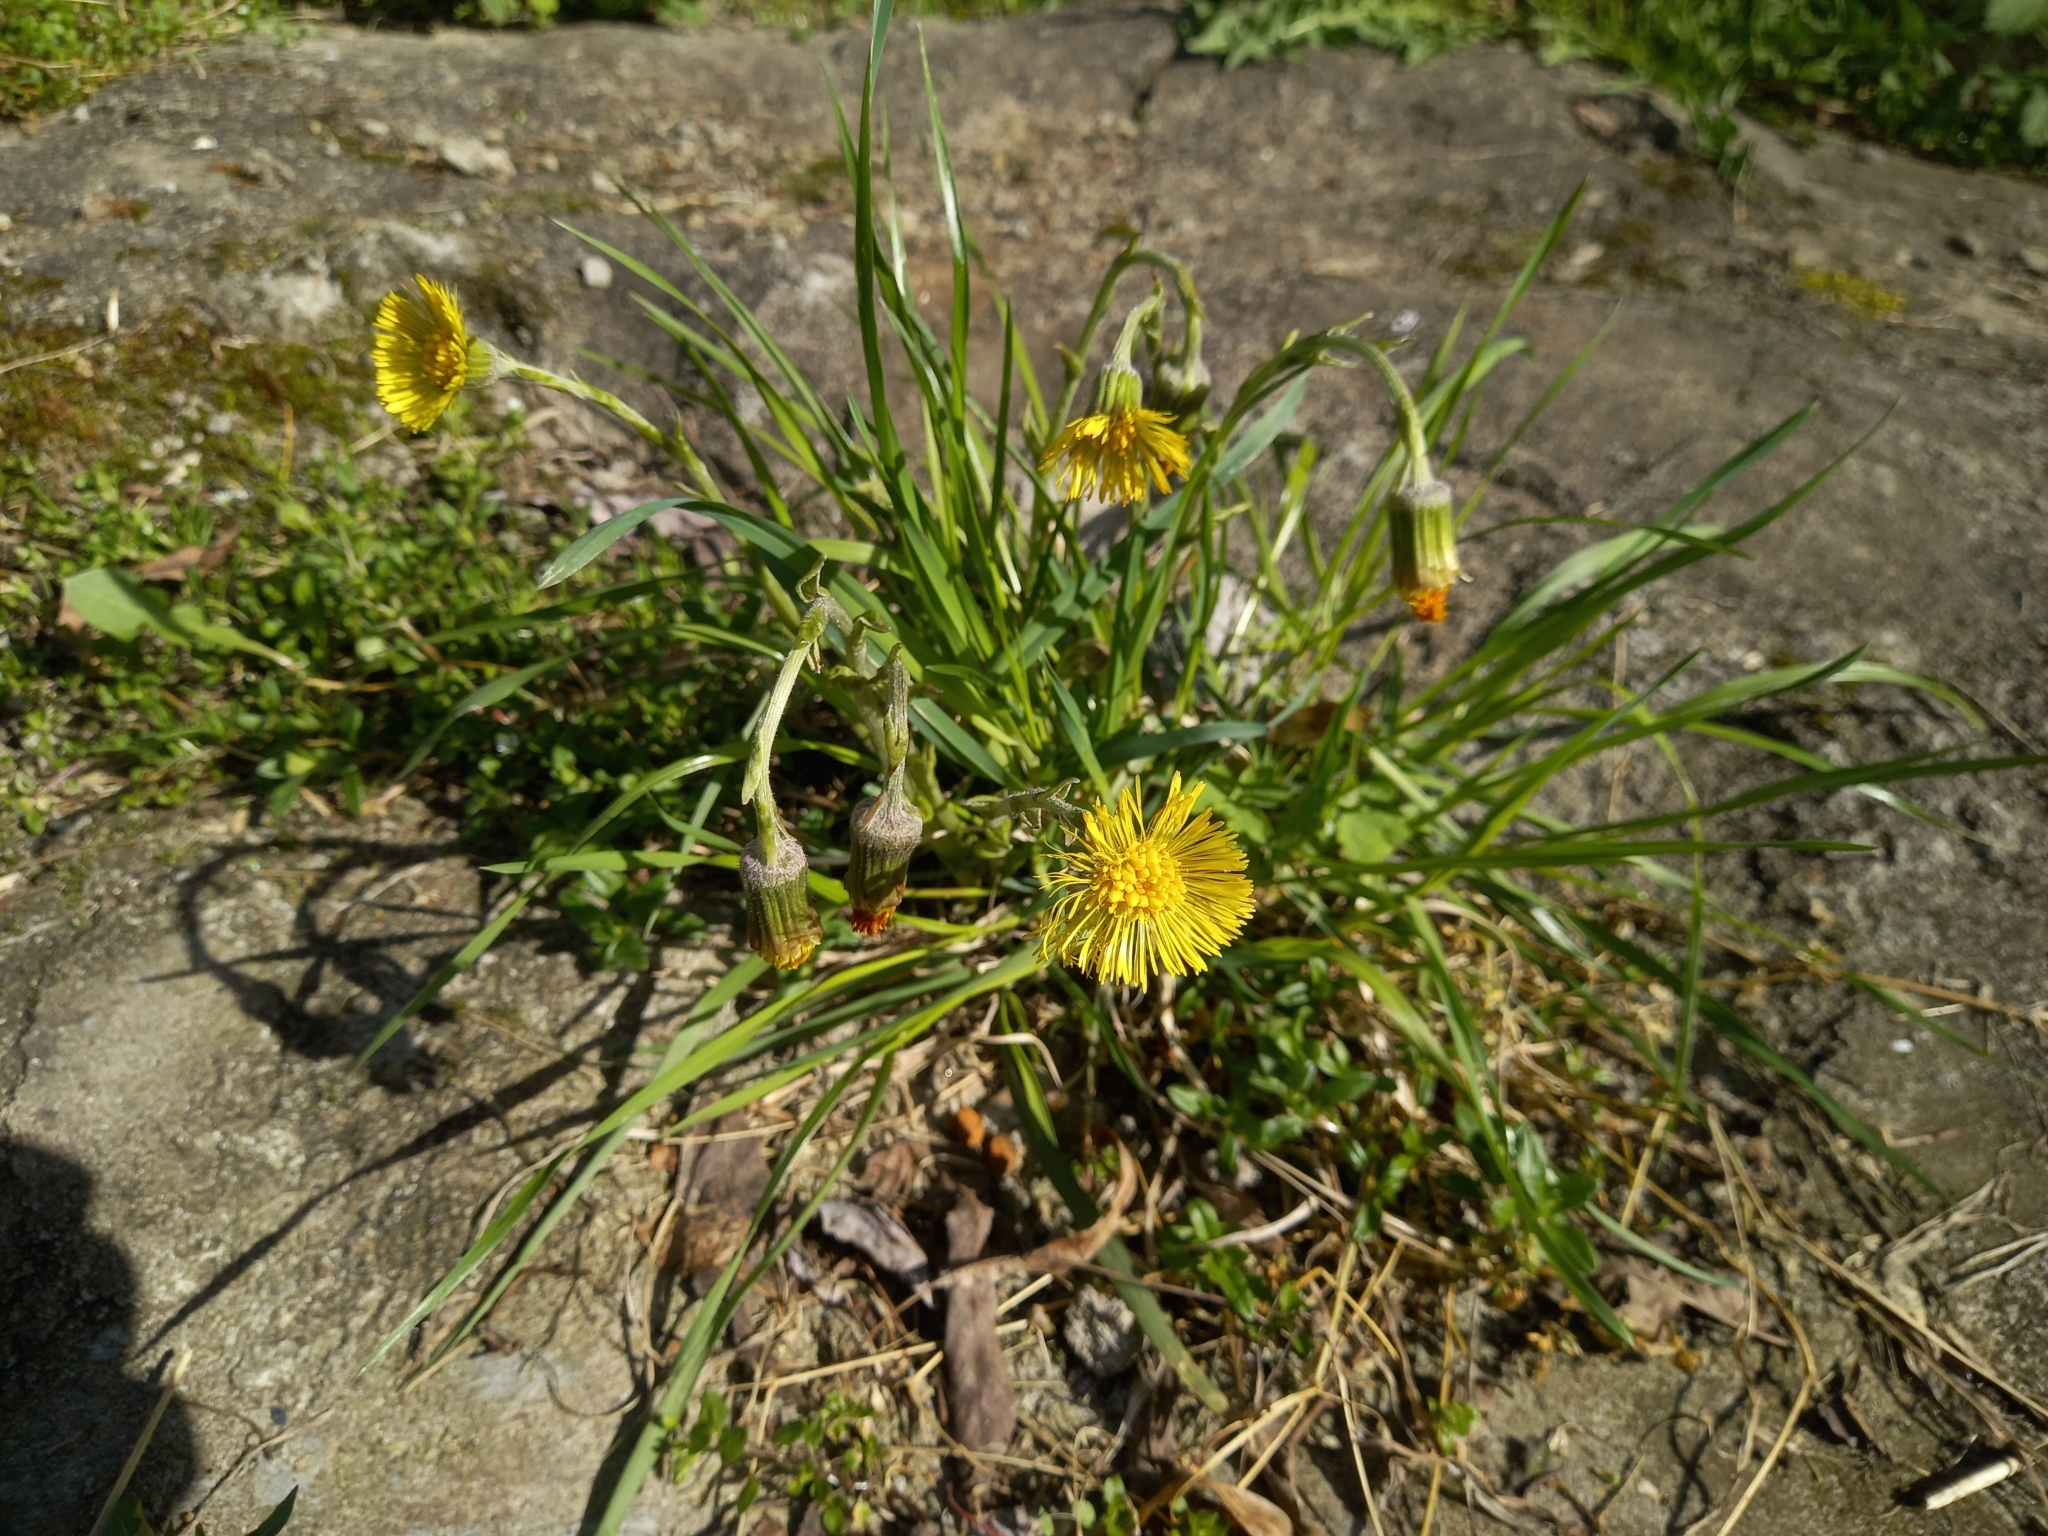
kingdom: Plantae
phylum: Tracheophyta
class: Magnoliopsida
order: Asterales
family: Asteraceae
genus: Tussilago
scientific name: Tussilago farfara
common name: Coltsfoot
